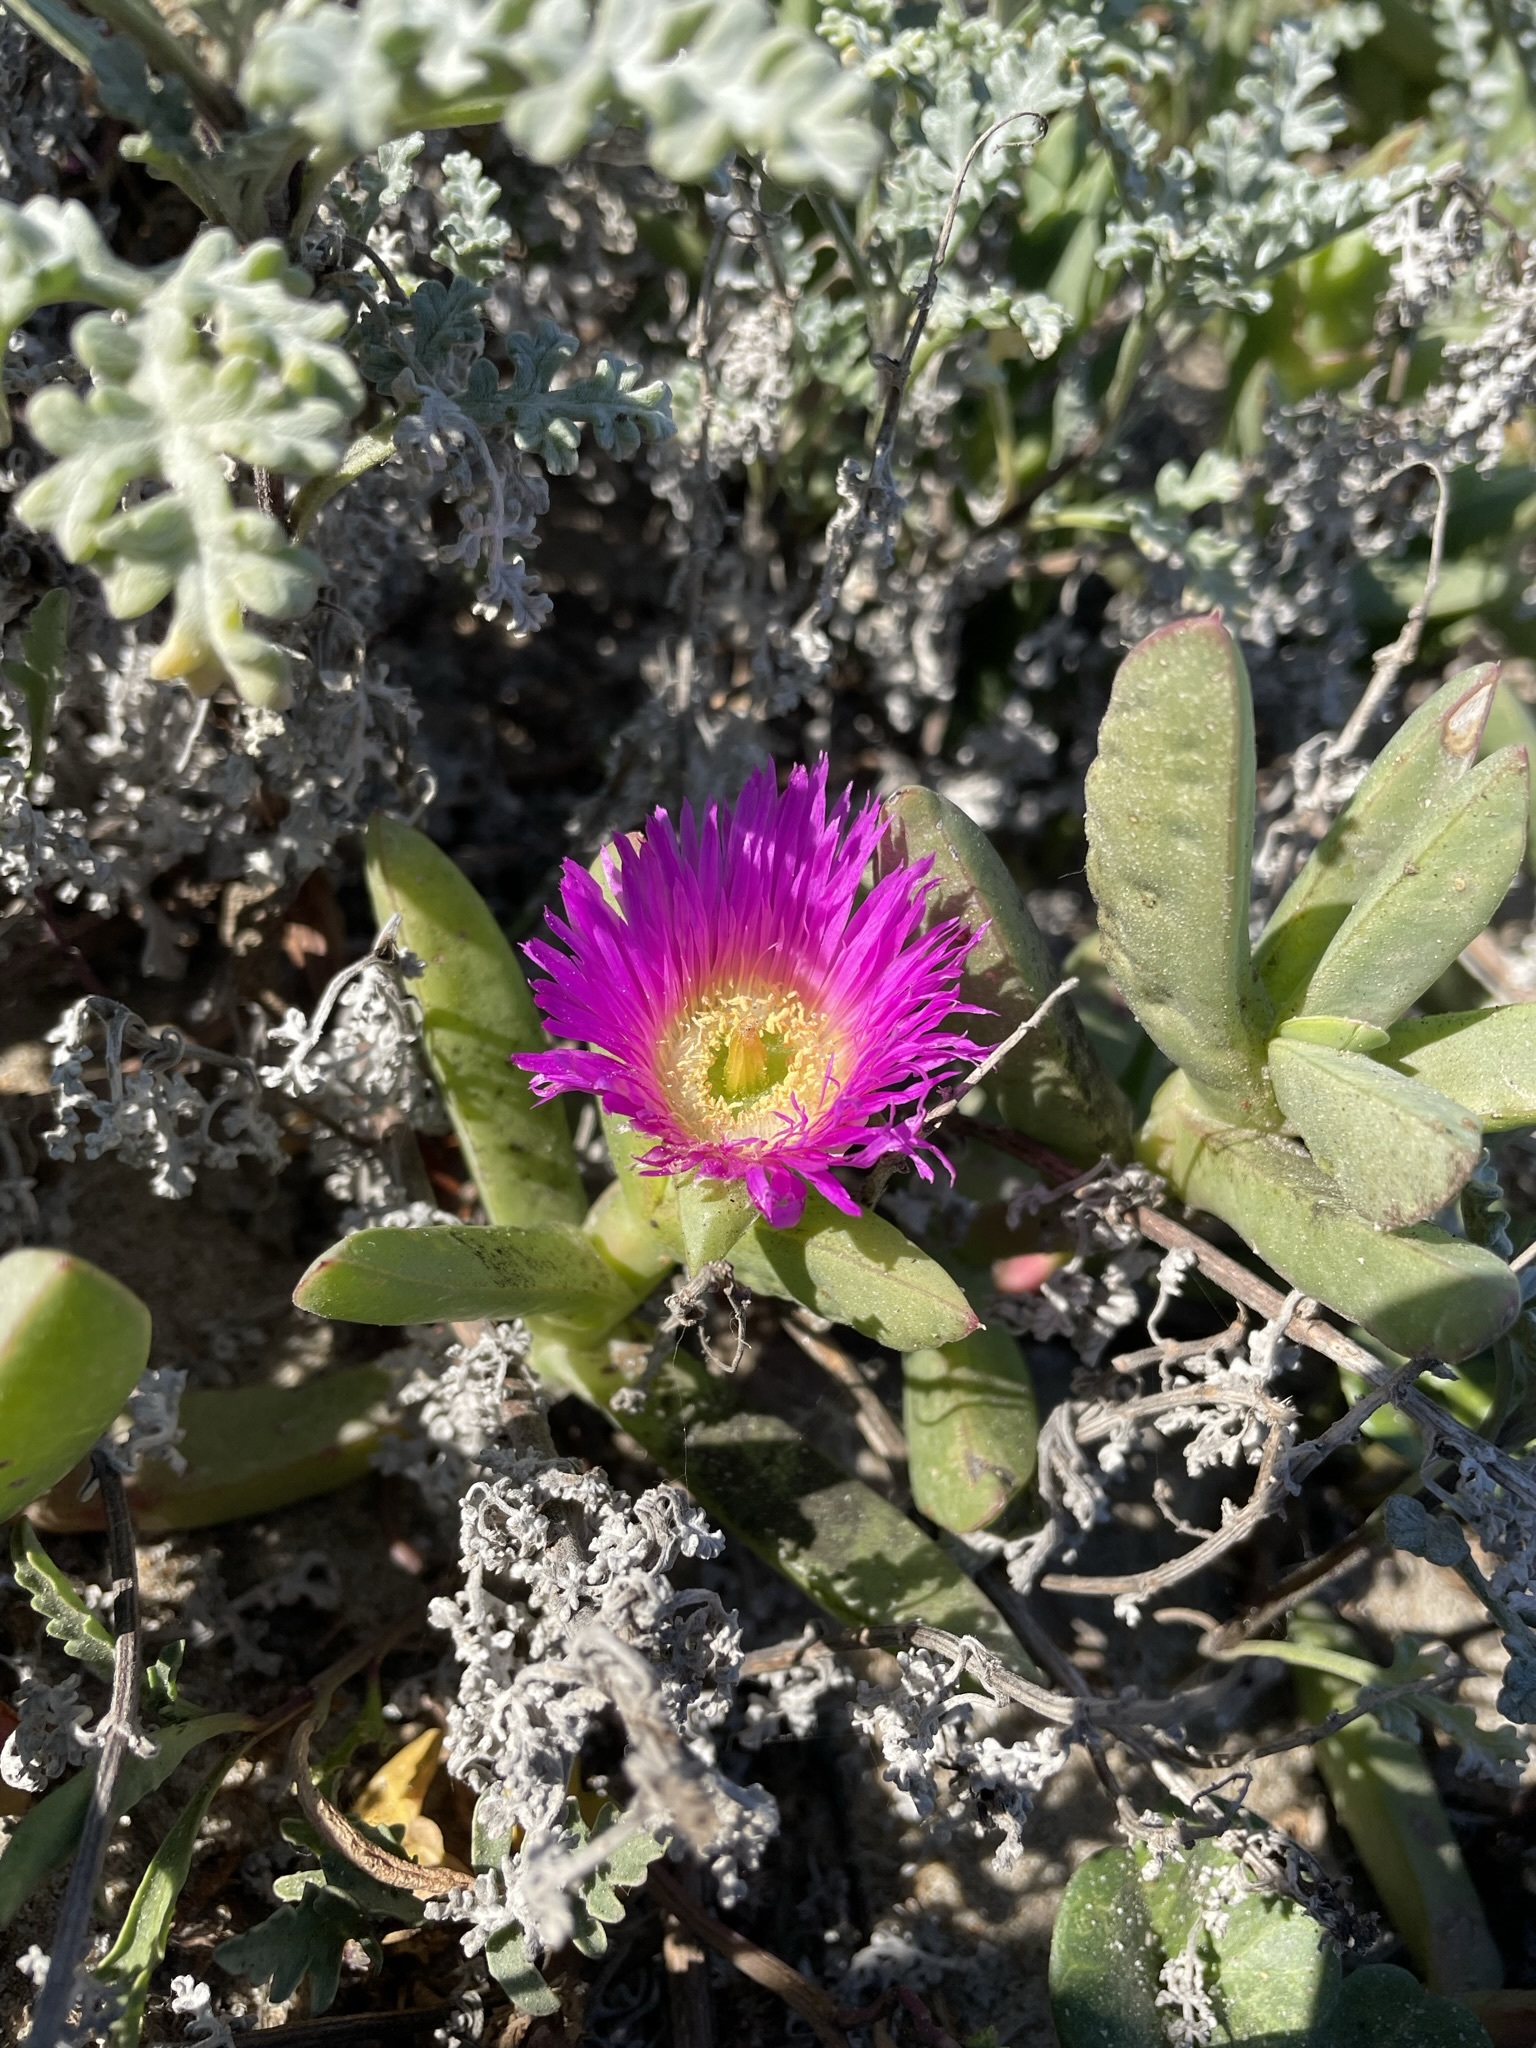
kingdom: Plantae
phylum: Tracheophyta
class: Magnoliopsida
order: Caryophyllales
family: Aizoaceae
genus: Carpobrotus
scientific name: Carpobrotus edulis
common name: Hottentot-fig
